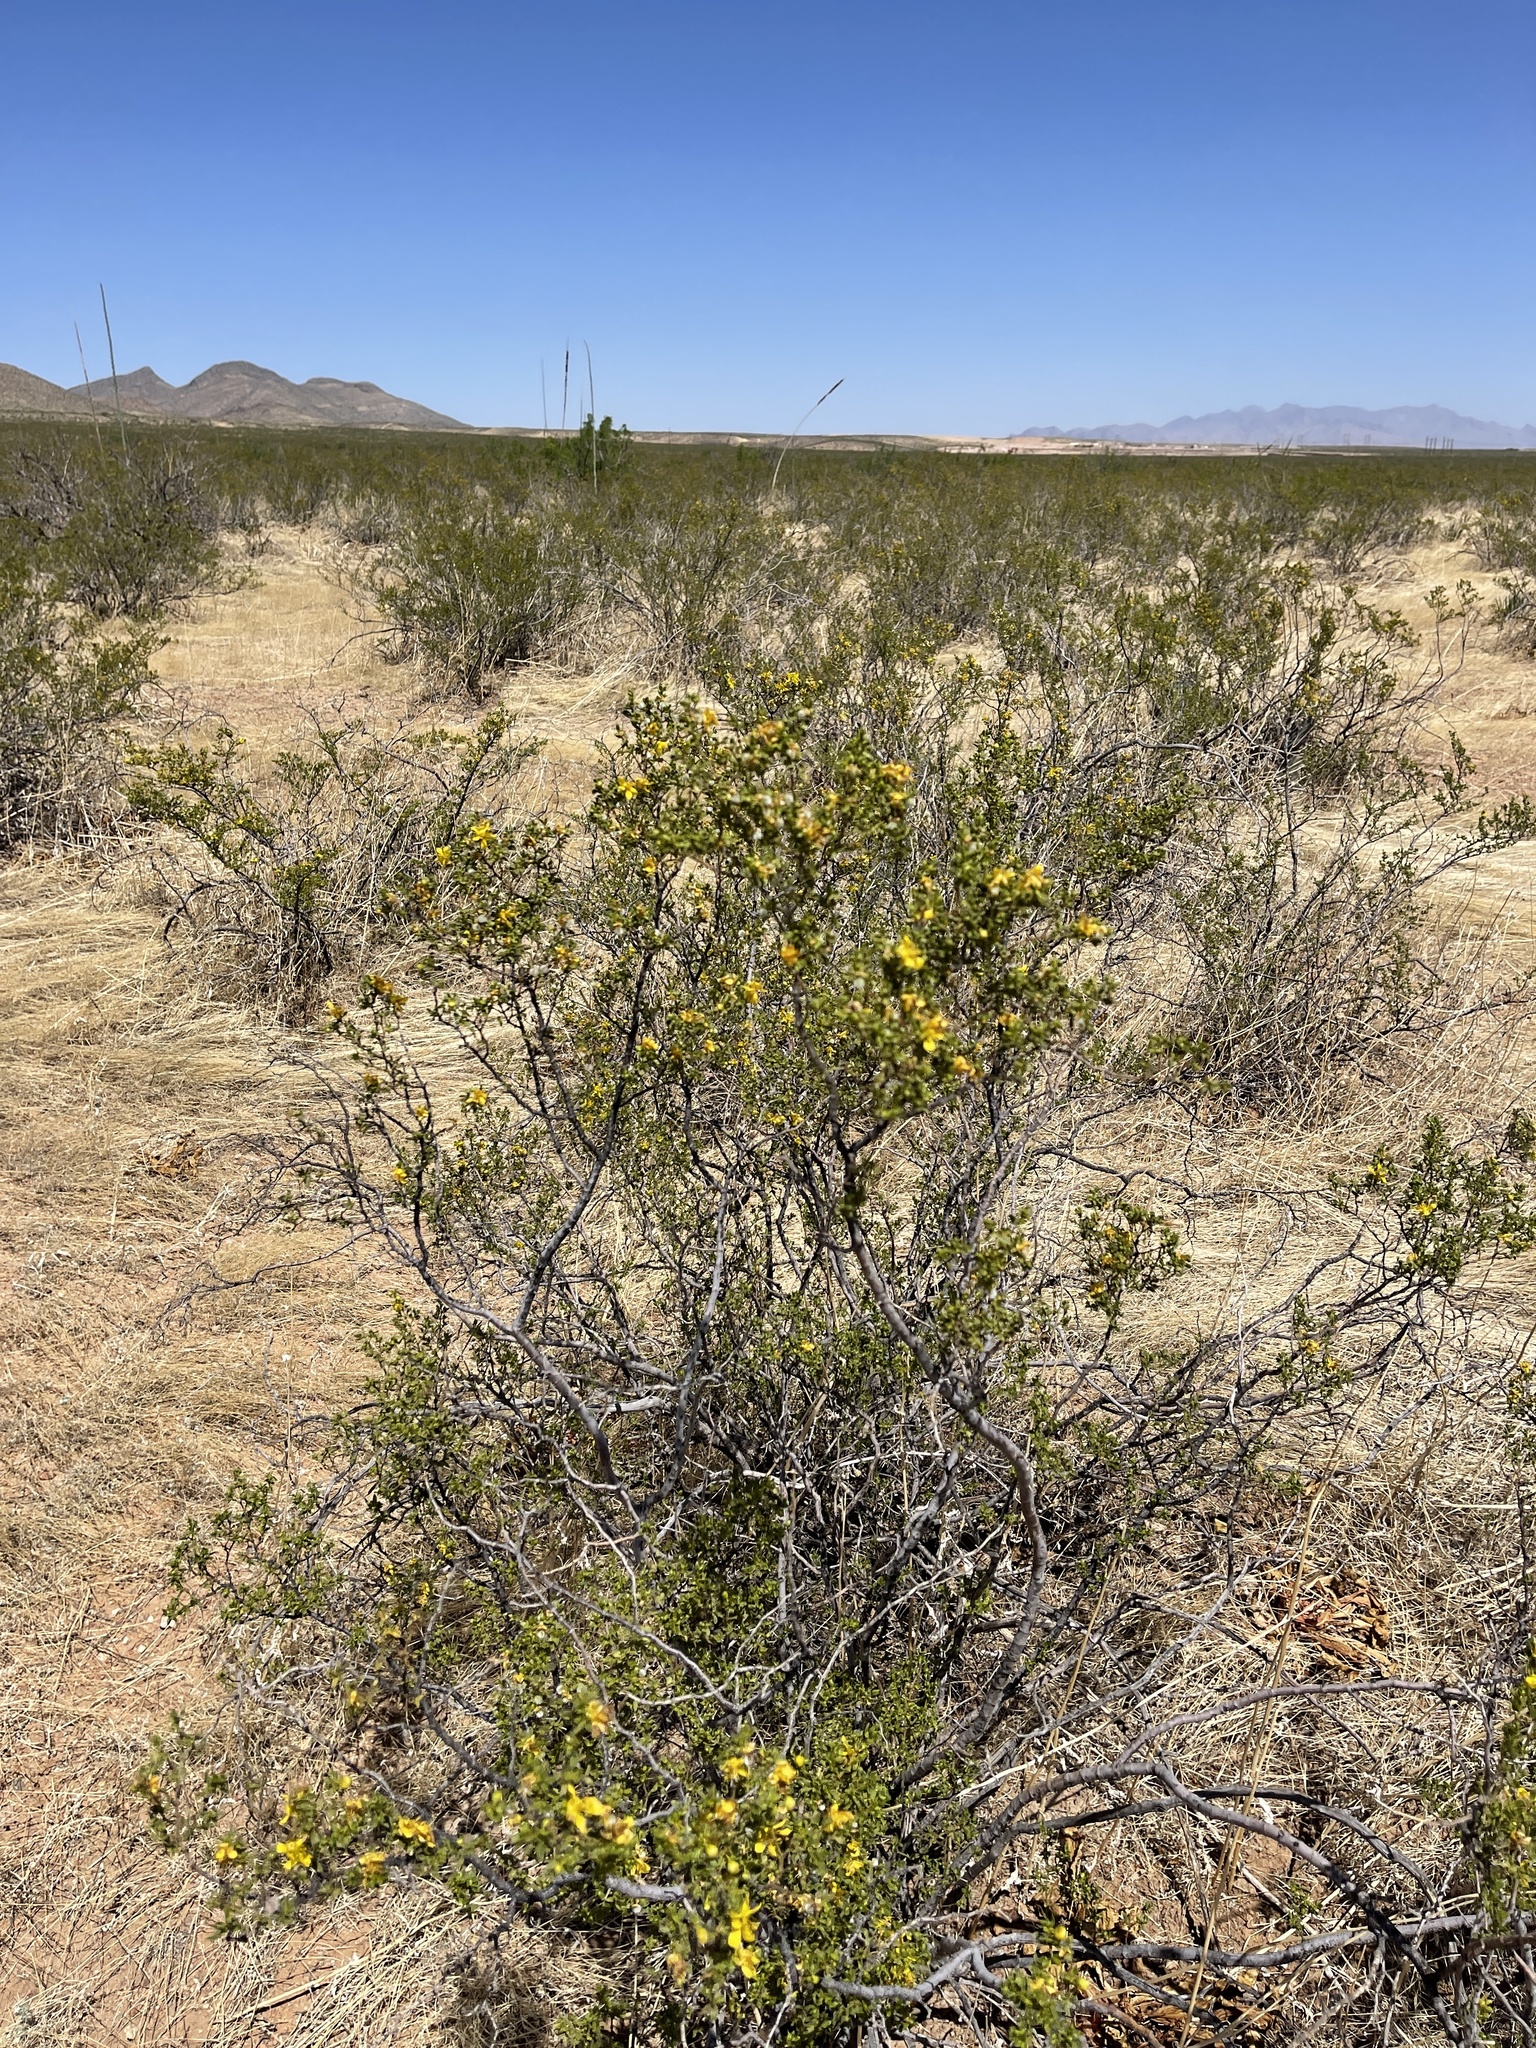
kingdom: Plantae
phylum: Tracheophyta
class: Magnoliopsida
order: Zygophyllales
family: Zygophyllaceae
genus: Larrea
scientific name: Larrea tridentata
